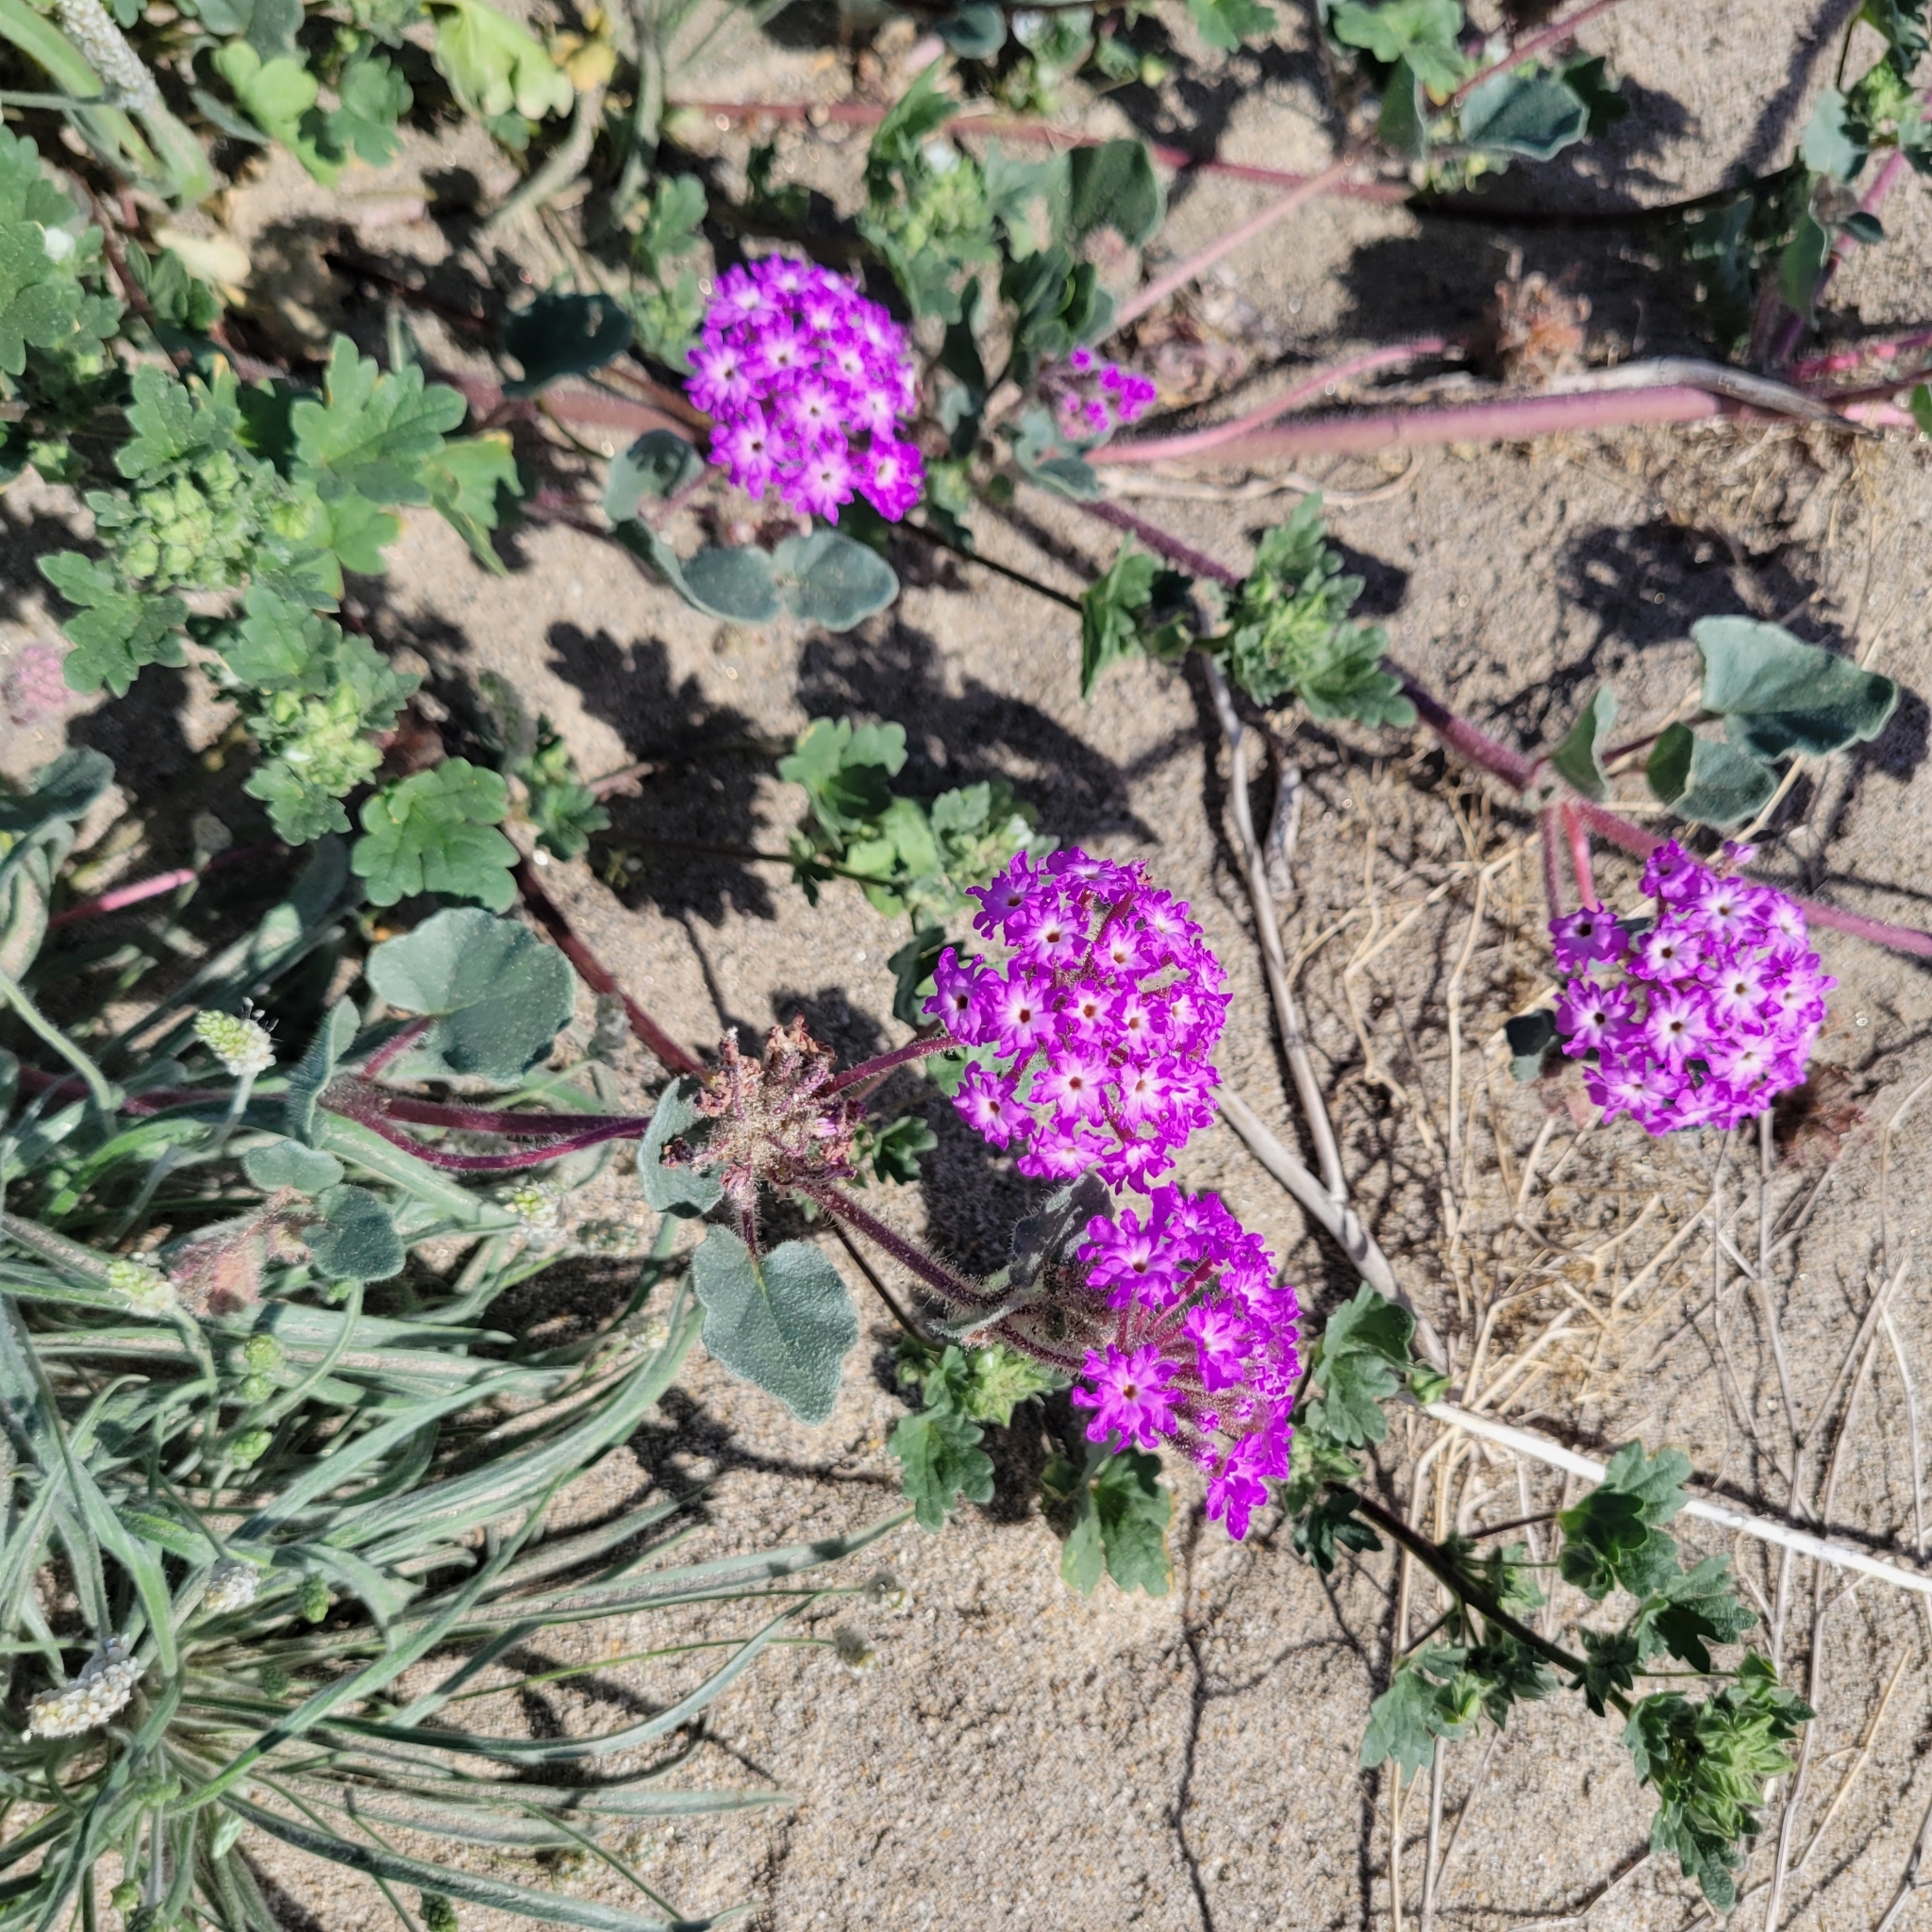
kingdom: Plantae
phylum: Tracheophyta
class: Magnoliopsida
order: Caryophyllales
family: Nyctaginaceae
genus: Abronia
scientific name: Abronia villosa
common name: Desert sand-verbena
